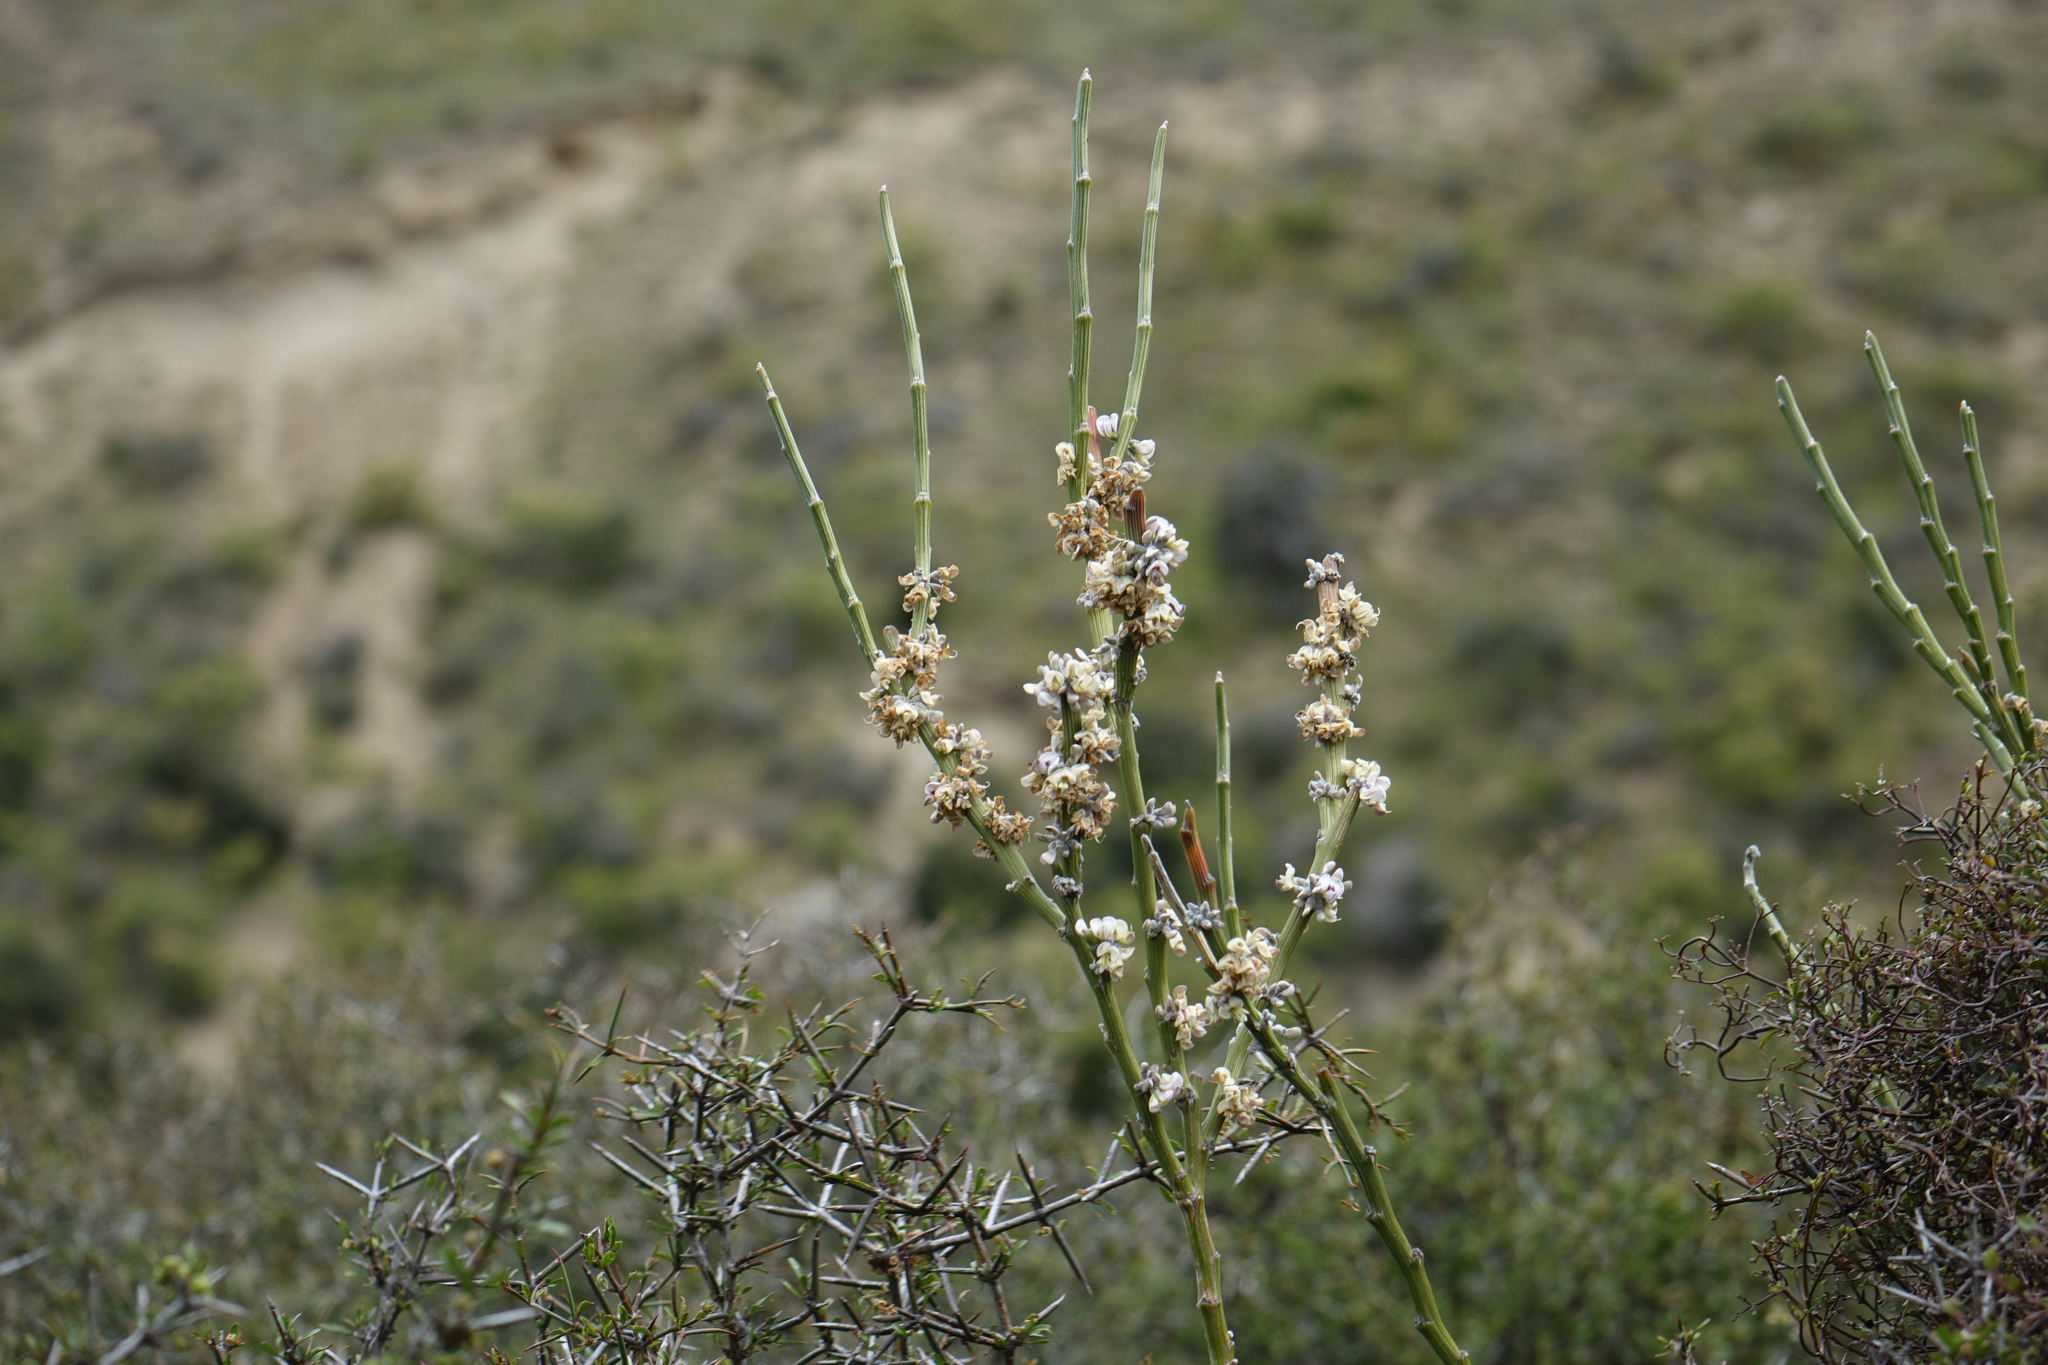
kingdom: Plantae
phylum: Tracheophyta
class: Magnoliopsida
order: Fabales
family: Fabaceae
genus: Carmichaelia
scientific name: Carmichaelia crassicaulis
